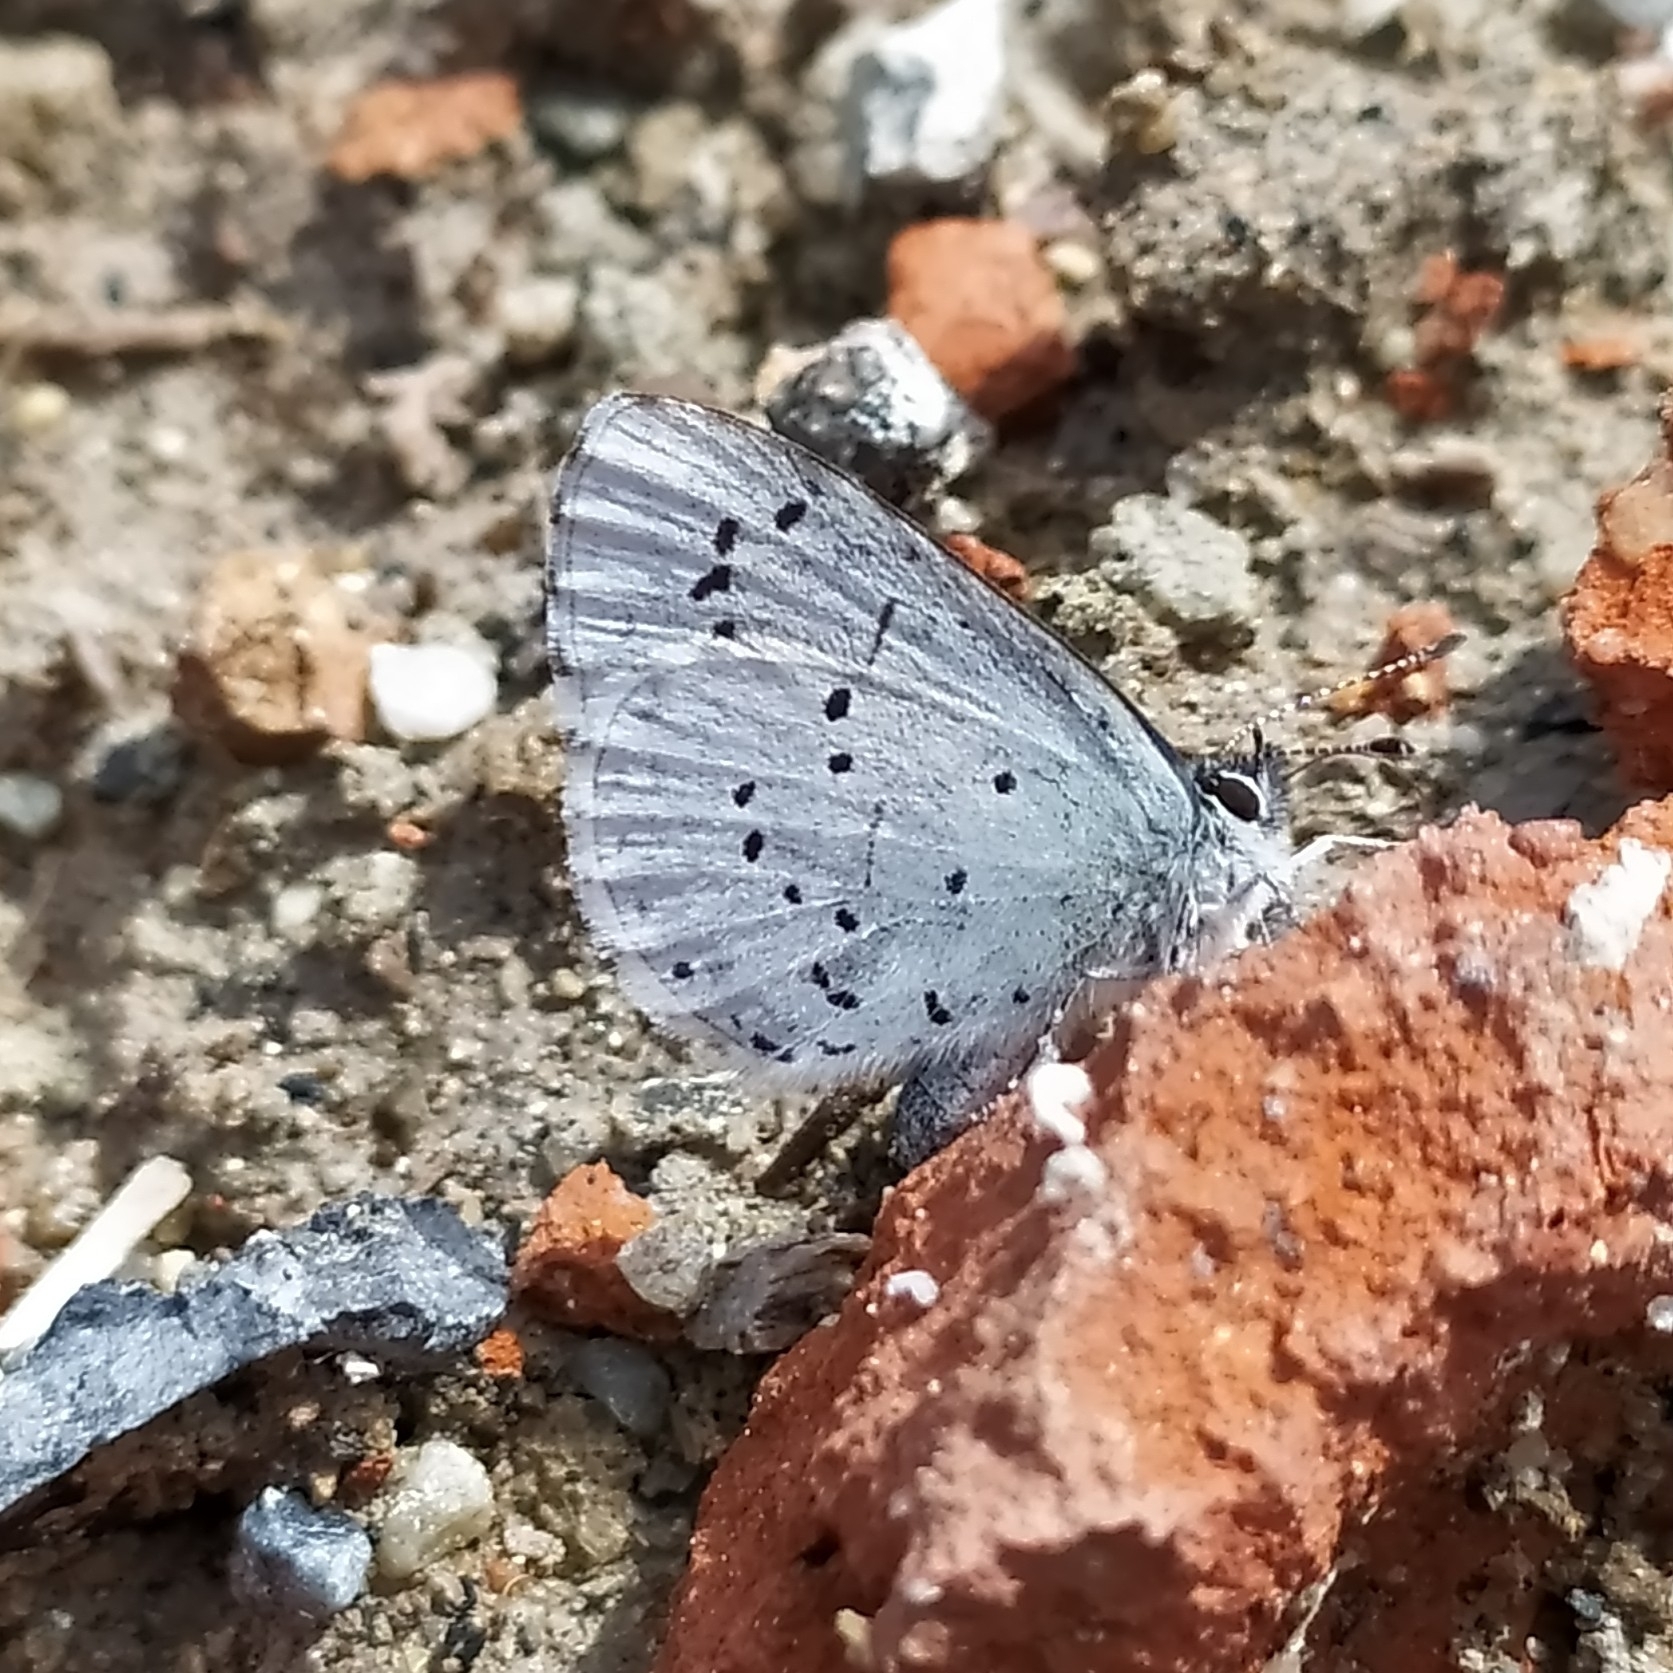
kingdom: Animalia
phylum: Arthropoda
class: Insecta
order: Lepidoptera
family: Lycaenidae
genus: Celastrina
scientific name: Celastrina argiolus
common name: Holly blue
